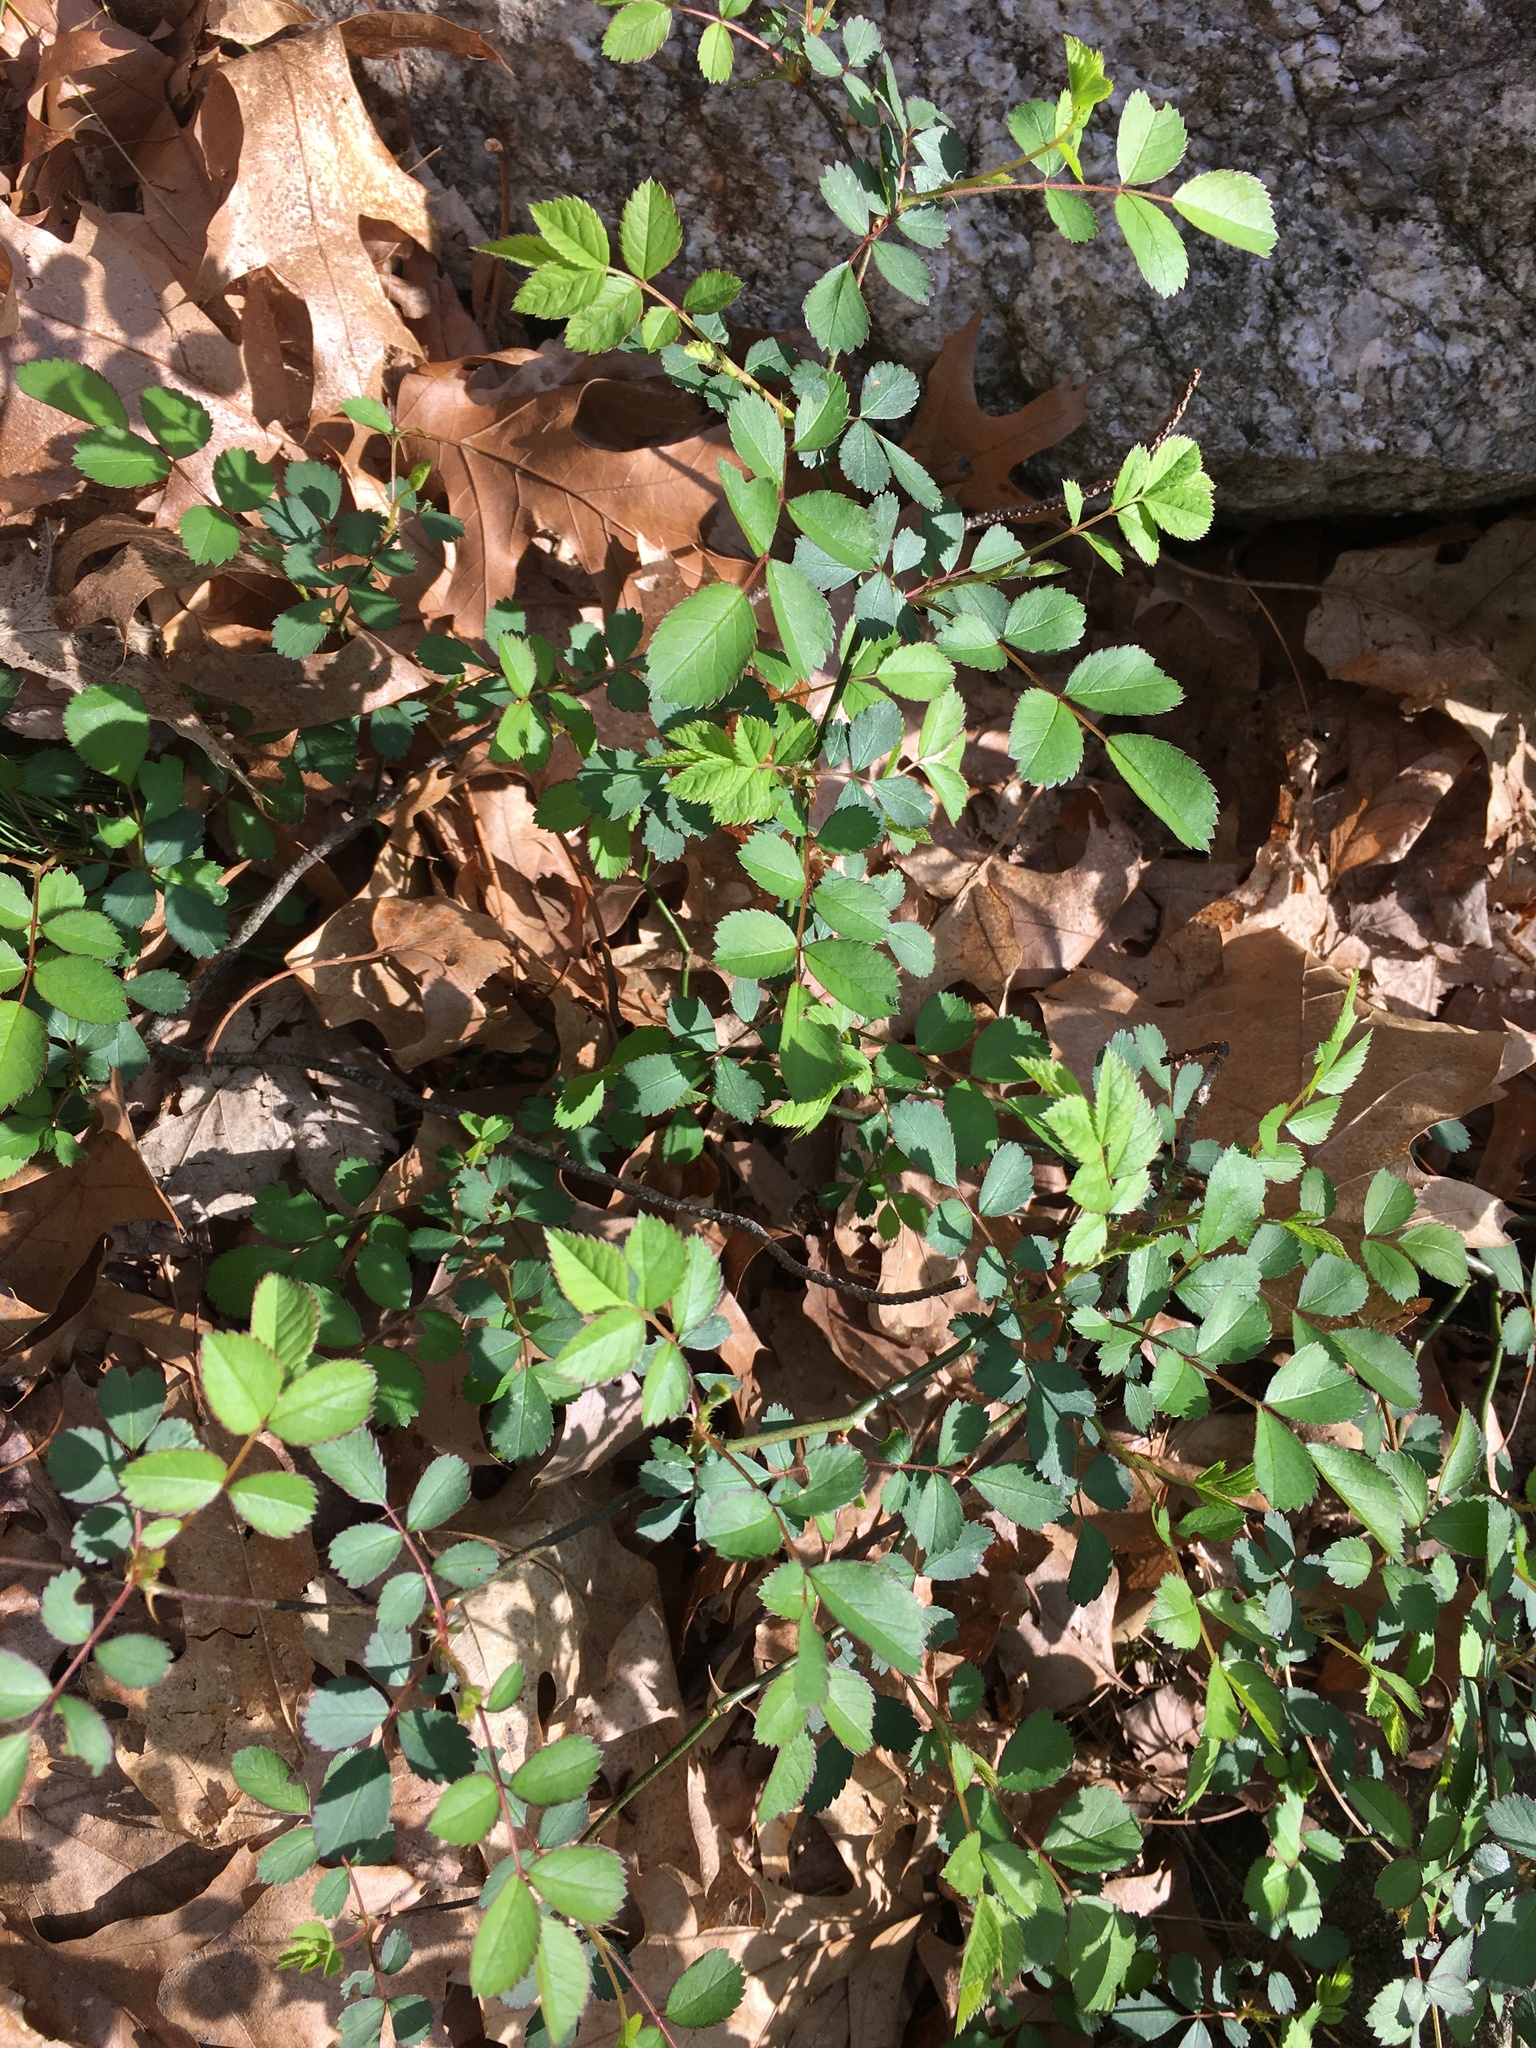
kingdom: Plantae
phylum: Tracheophyta
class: Magnoliopsida
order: Rosales
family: Rosaceae
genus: Rosa
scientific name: Rosa multiflora
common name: Multiflora rose
